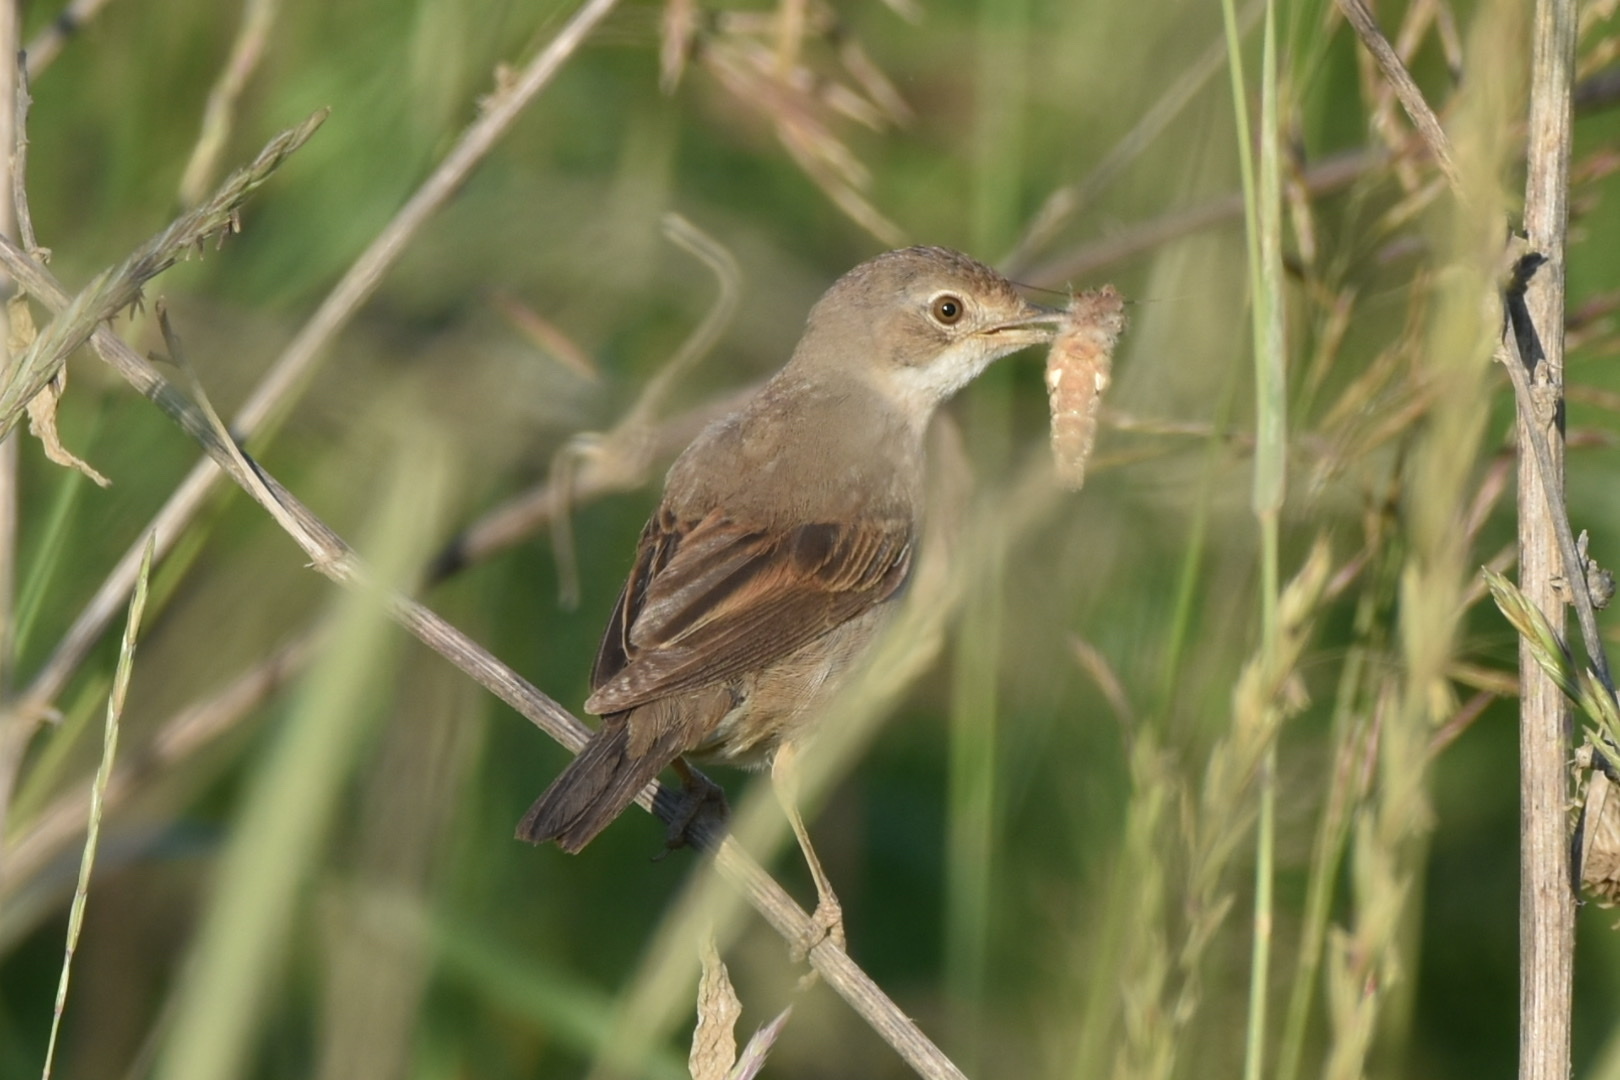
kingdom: Animalia
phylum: Chordata
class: Aves
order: Passeriformes
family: Sylviidae
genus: Sylvia
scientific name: Sylvia communis
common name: Common whitethroat
